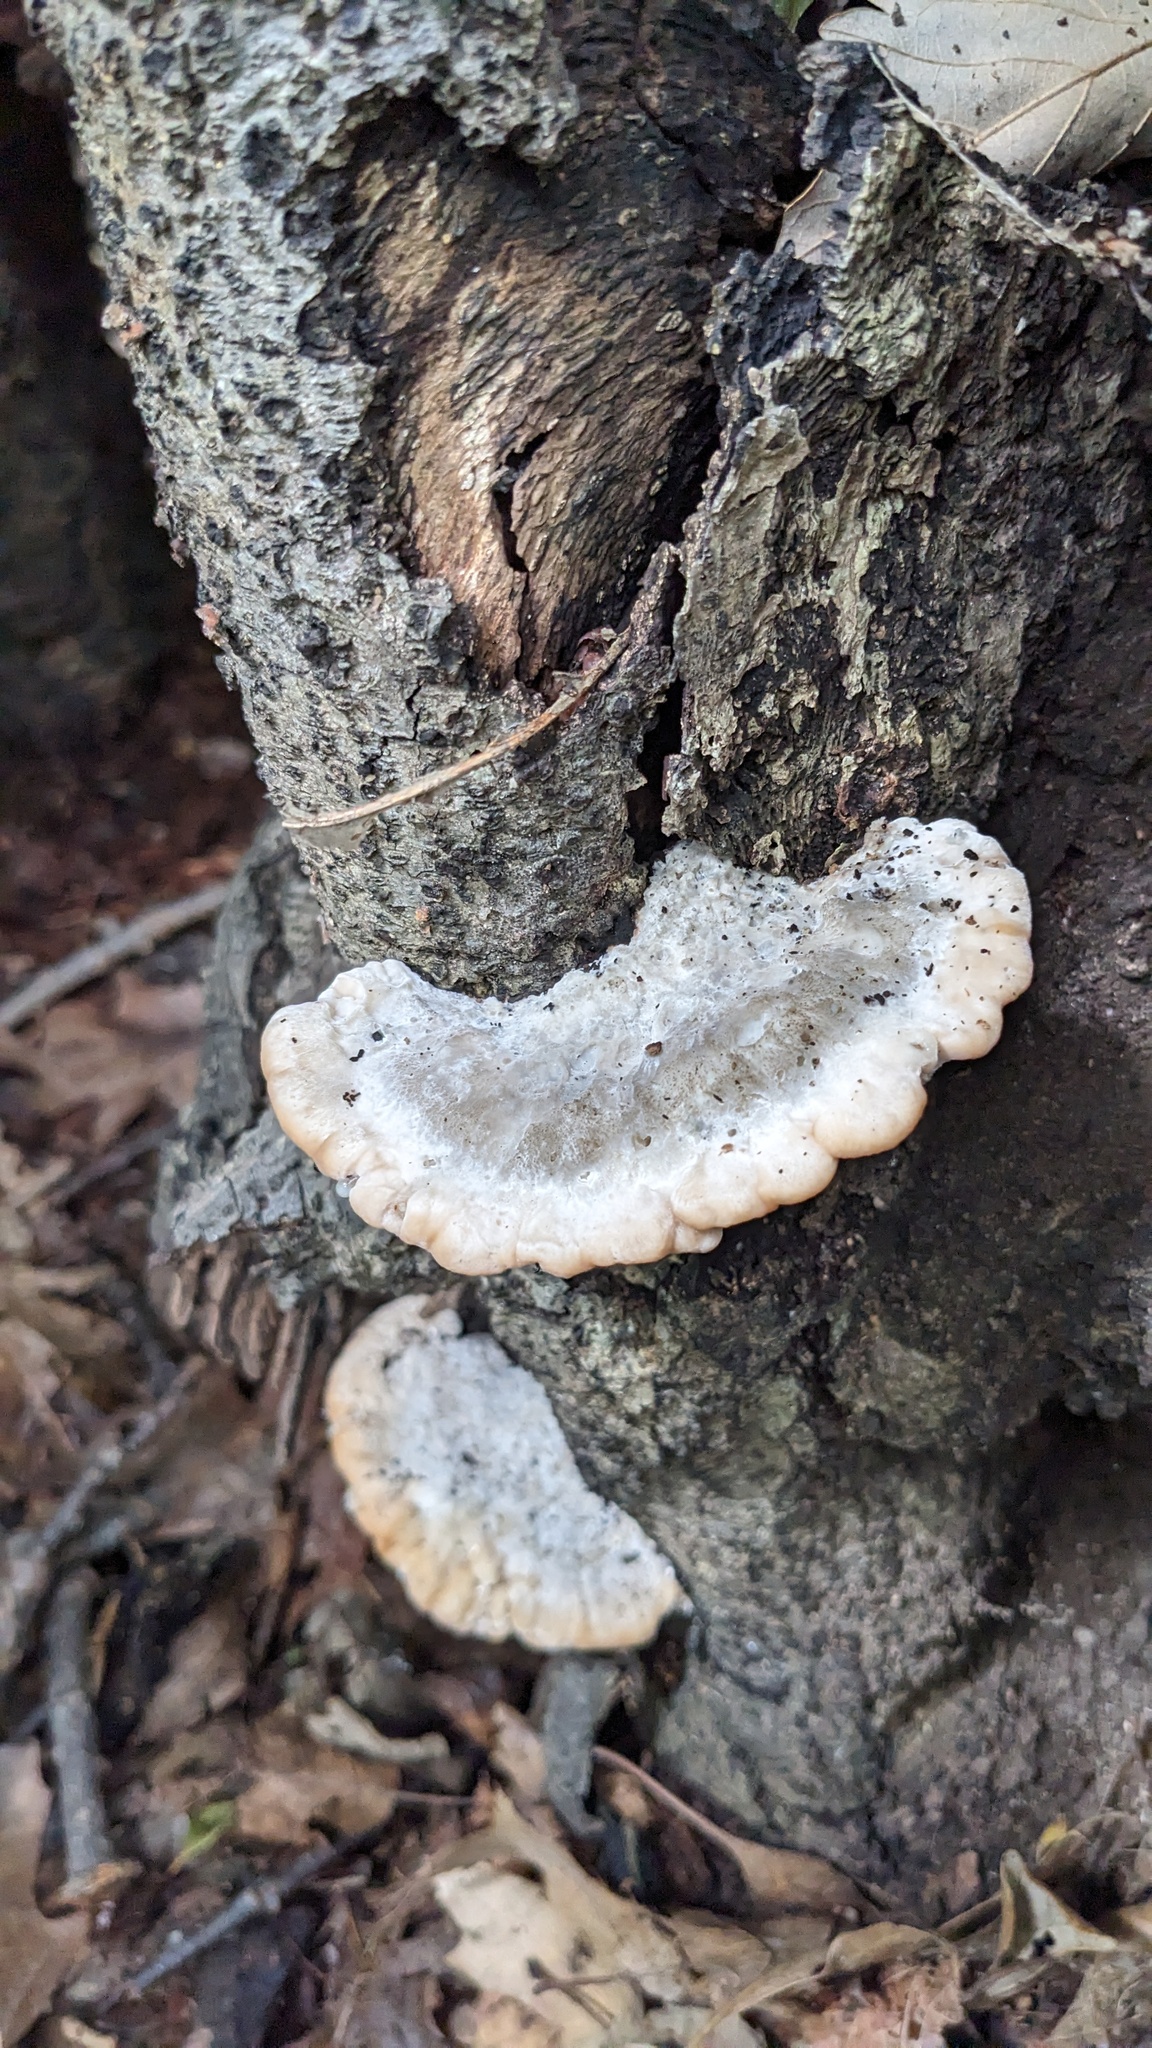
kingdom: Fungi
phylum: Basidiomycota
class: Agaricomycetes
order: Polyporales
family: Fomitopsidaceae
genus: Niveoporofomes
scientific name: Niveoporofomes spraguei
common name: Green cheese polypore
